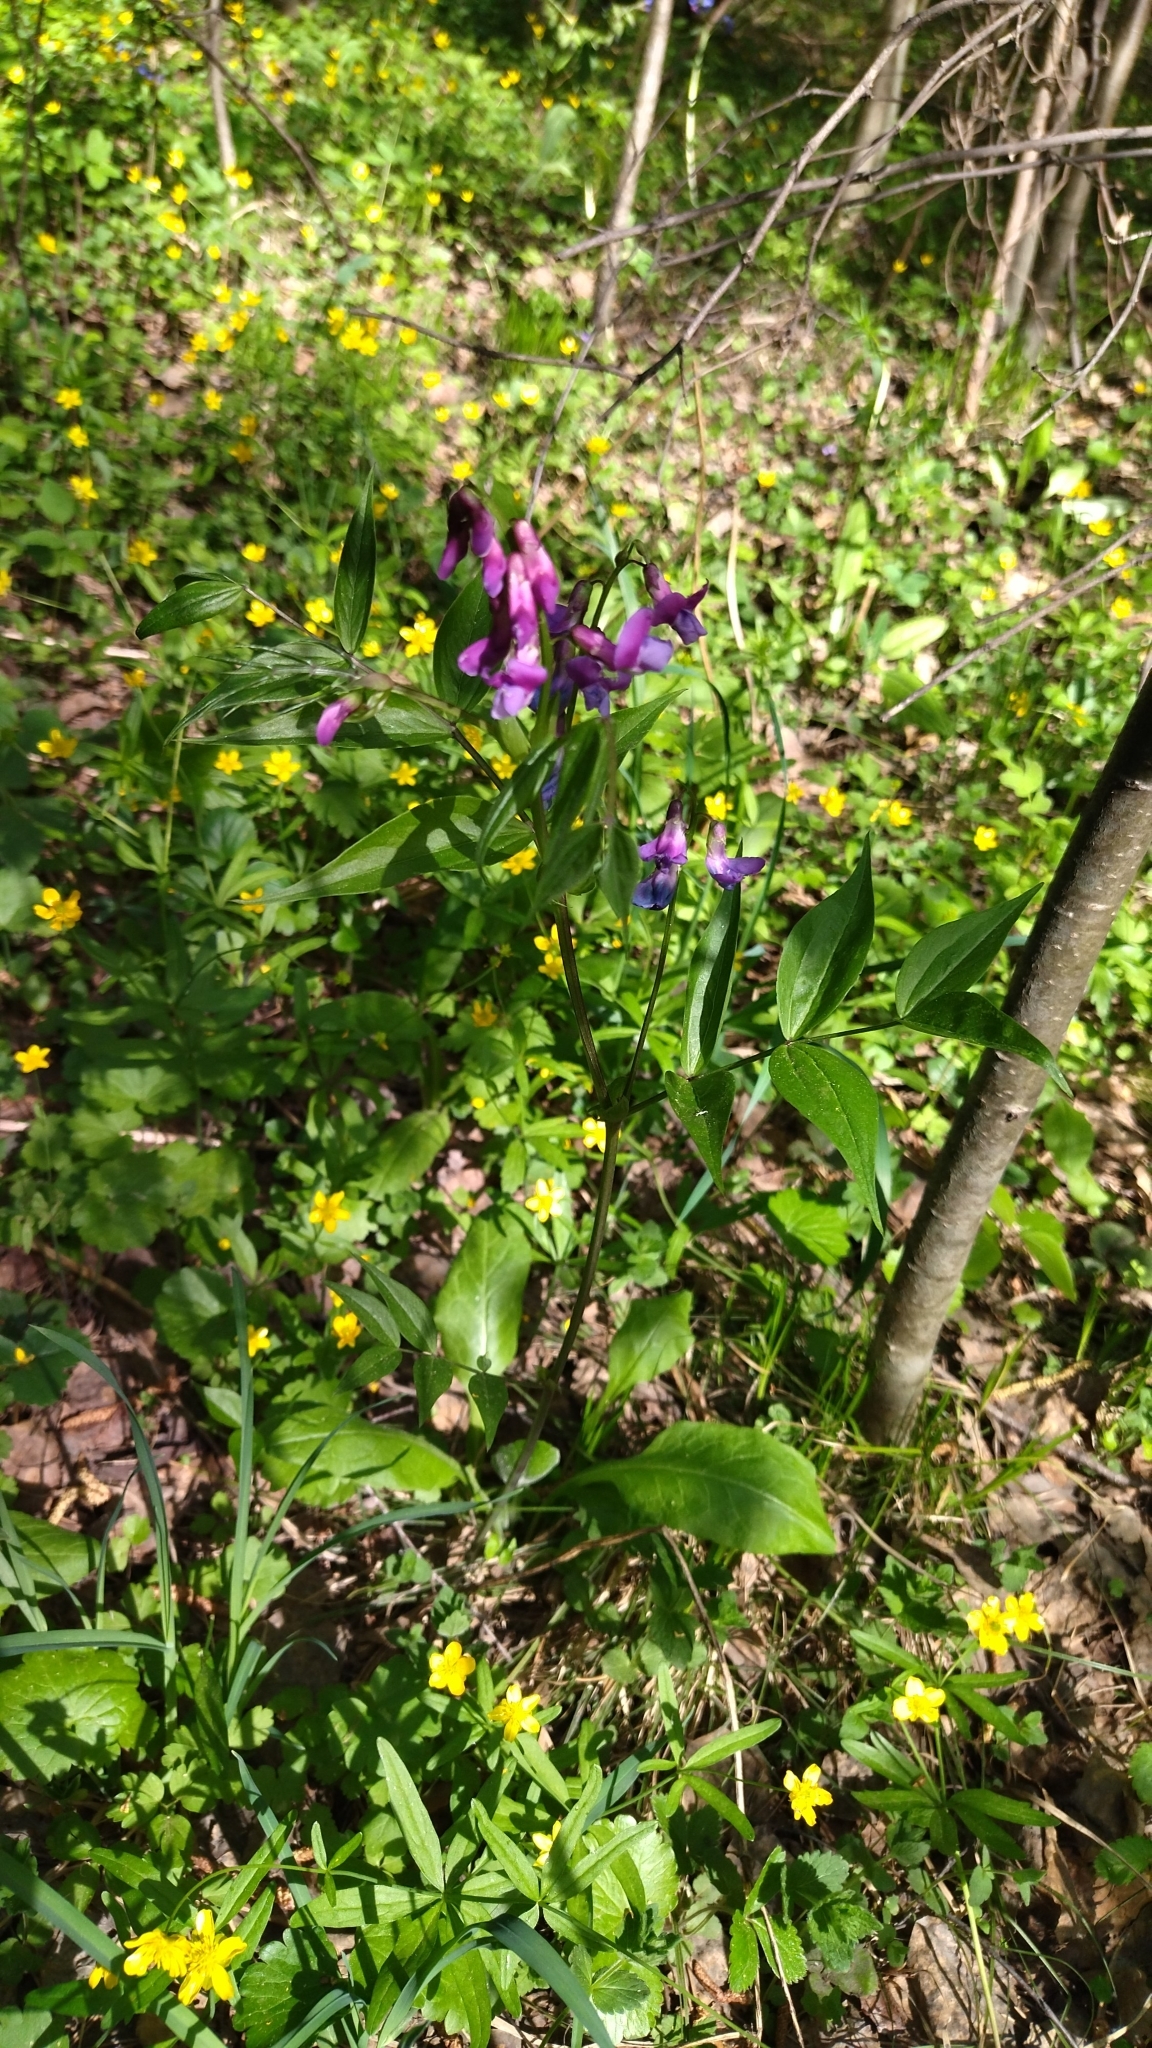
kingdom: Plantae
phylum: Tracheophyta
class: Magnoliopsida
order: Fabales
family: Fabaceae
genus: Lathyrus
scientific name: Lathyrus vernus
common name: Spring pea
